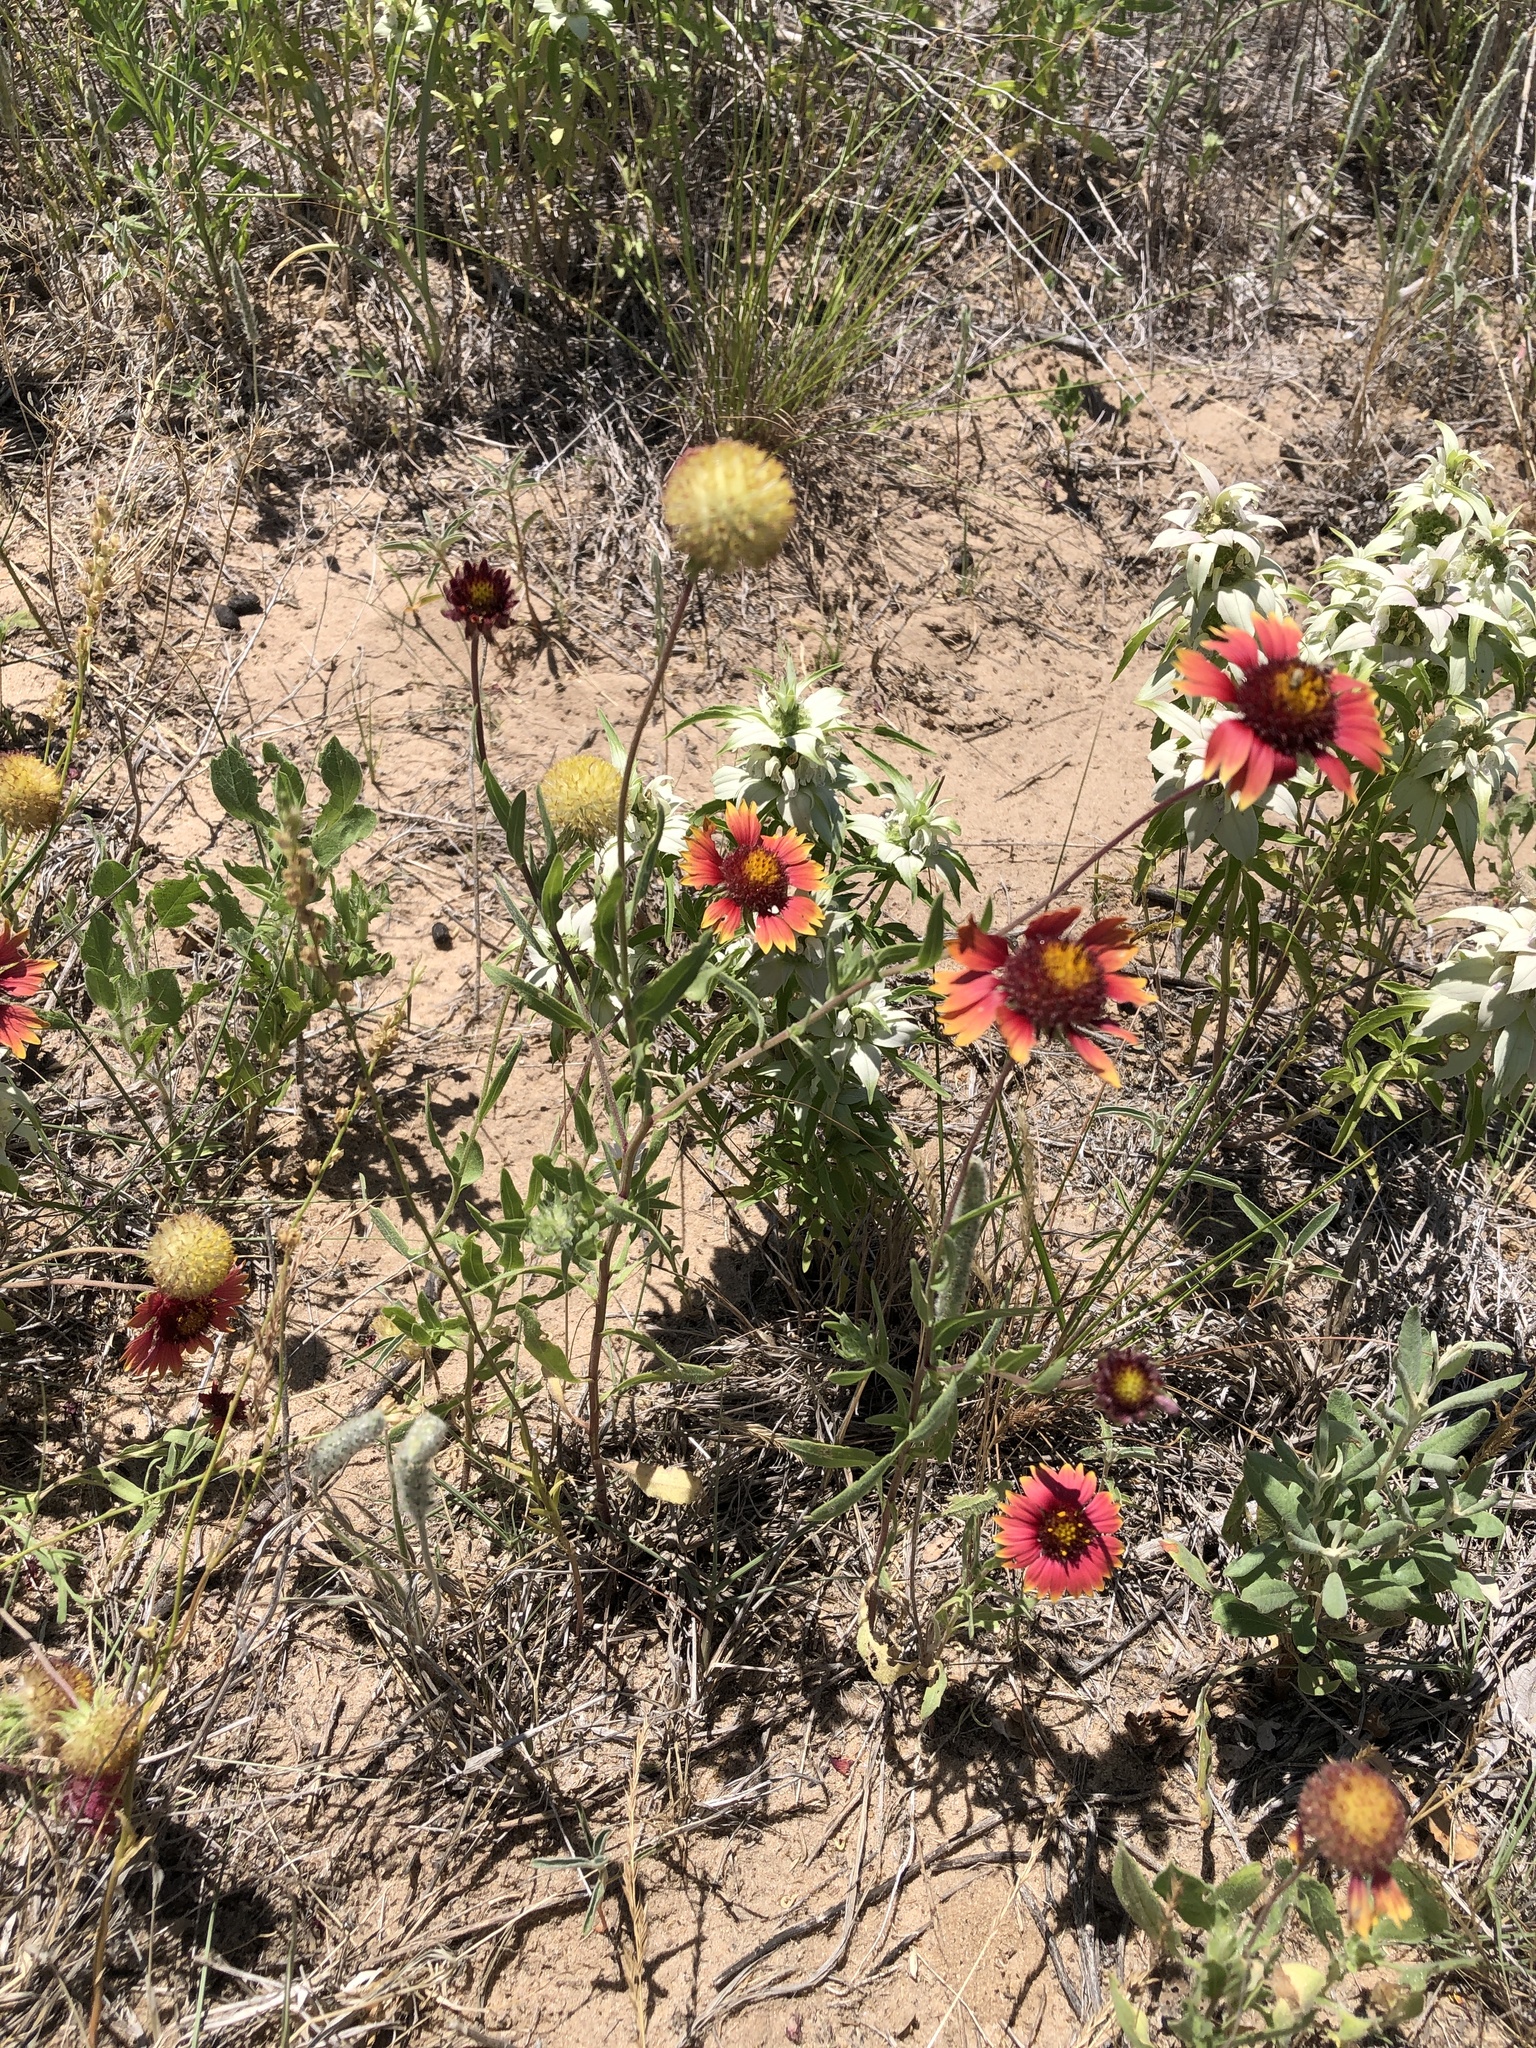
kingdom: Plantae
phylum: Tracheophyta
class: Magnoliopsida
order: Asterales
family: Asteraceae
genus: Gaillardia
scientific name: Gaillardia pulchella
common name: Firewheel
